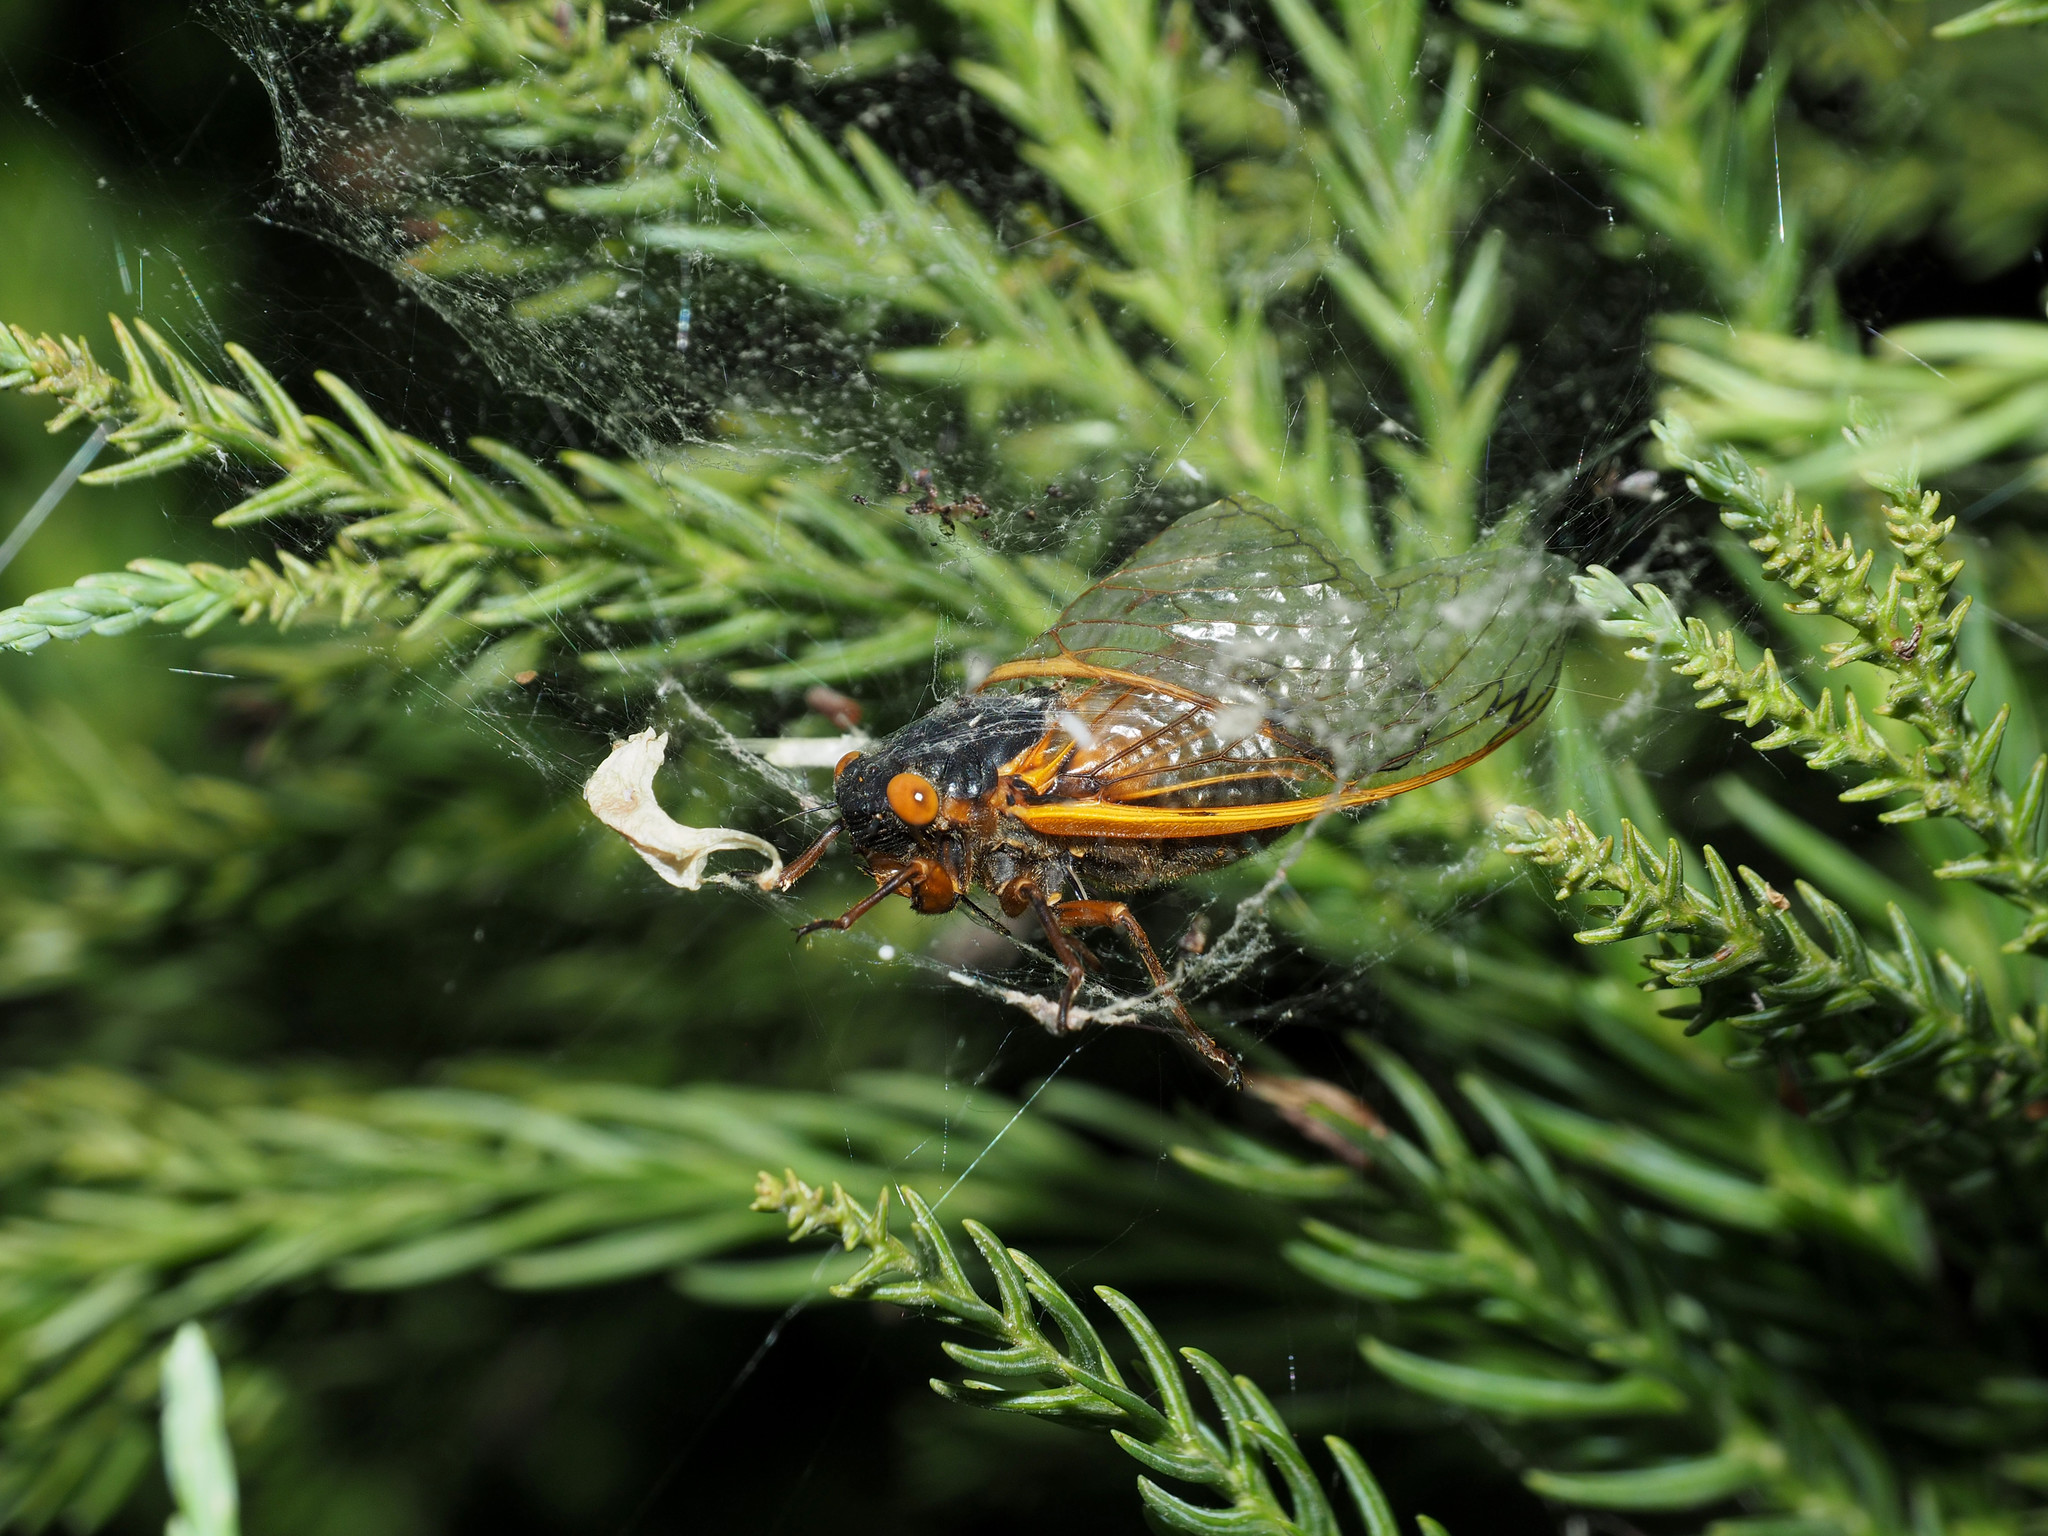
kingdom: Animalia
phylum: Arthropoda
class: Insecta
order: Hemiptera
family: Cicadidae
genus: Magicicada
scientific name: Magicicada septendecim
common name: Periodical cicada
